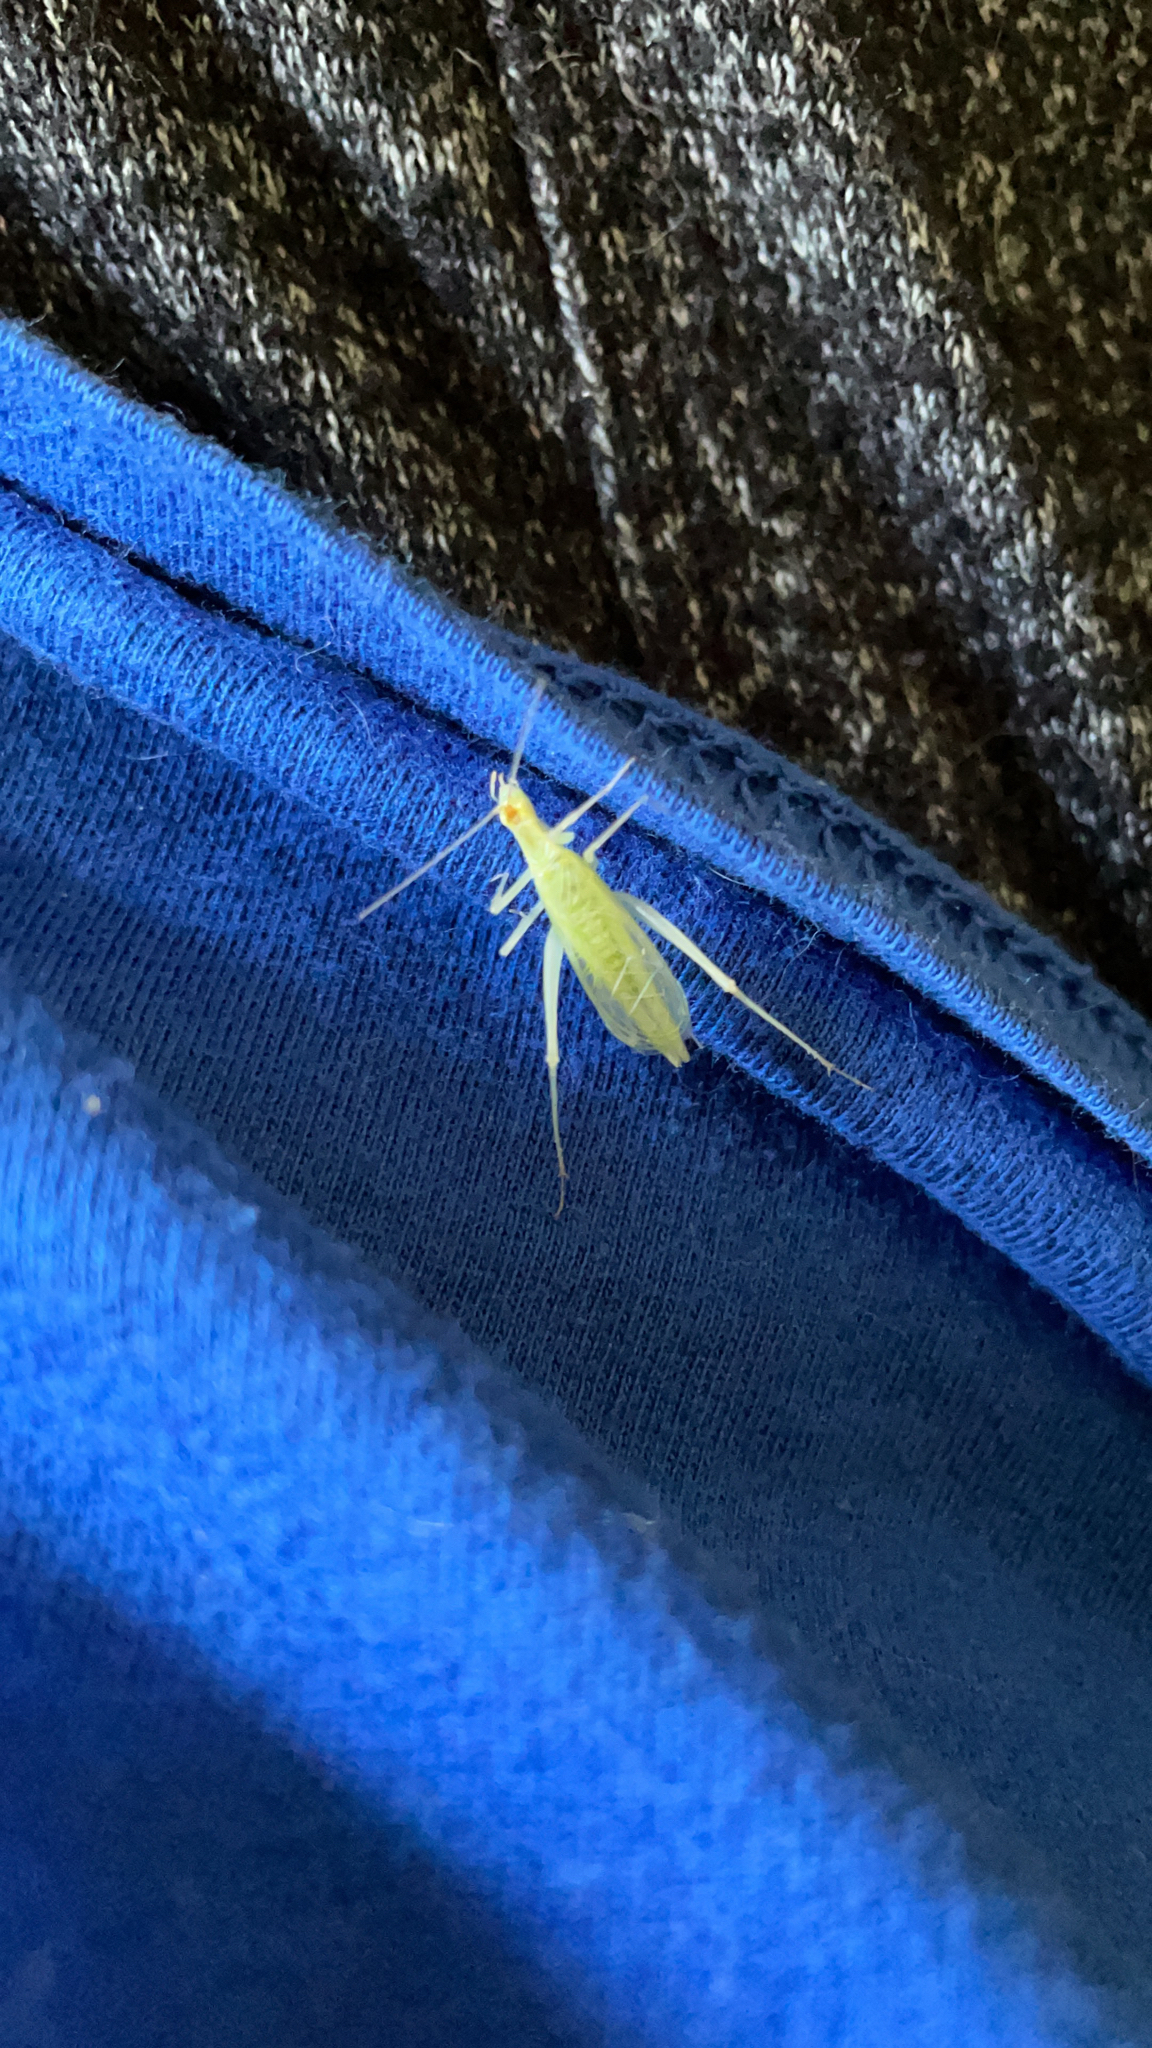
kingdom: Animalia
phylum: Arthropoda
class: Insecta
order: Orthoptera
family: Gryllidae
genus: Oecanthus
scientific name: Oecanthus niveus
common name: Narrow-winged tree cricket
